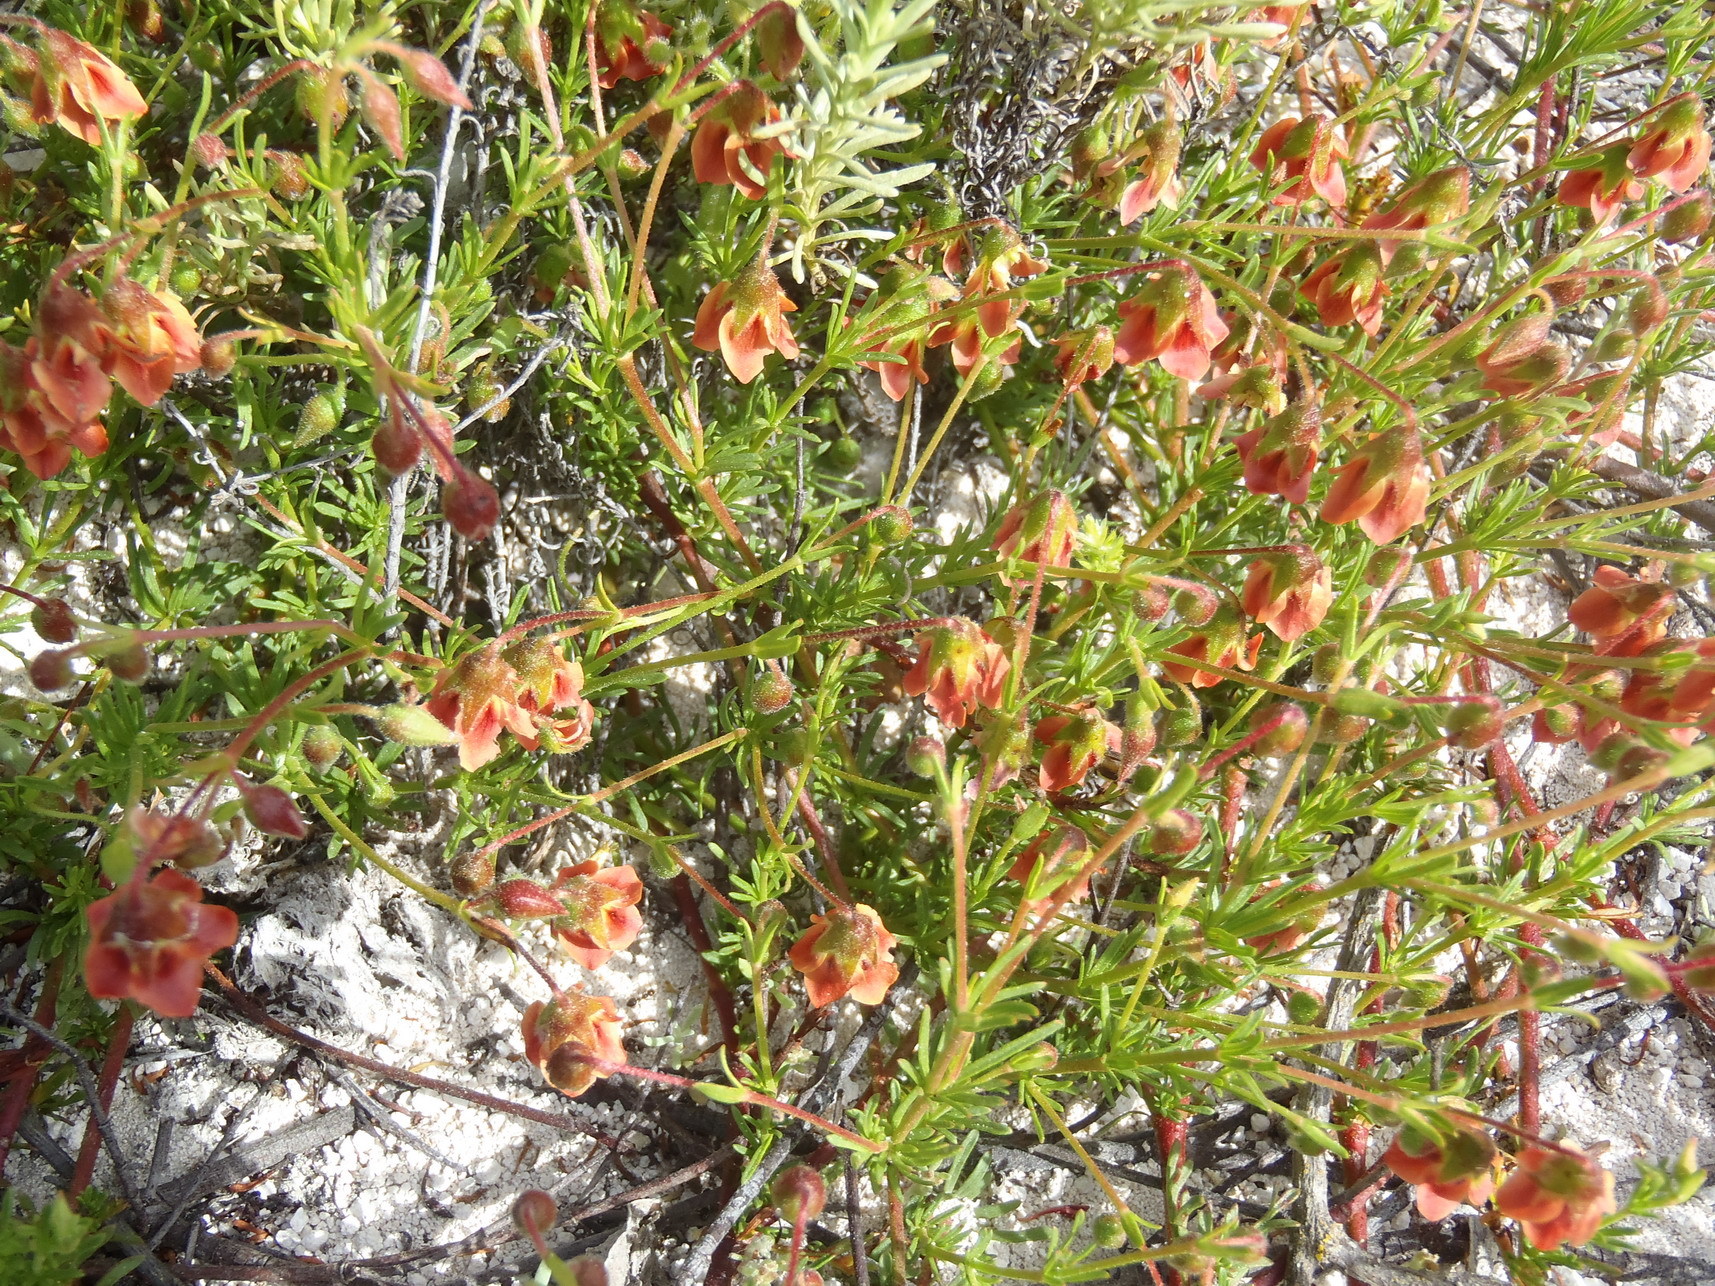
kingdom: Plantae
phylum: Tracheophyta
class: Magnoliopsida
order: Malvales
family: Malvaceae
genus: Hermannia
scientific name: Hermannia
